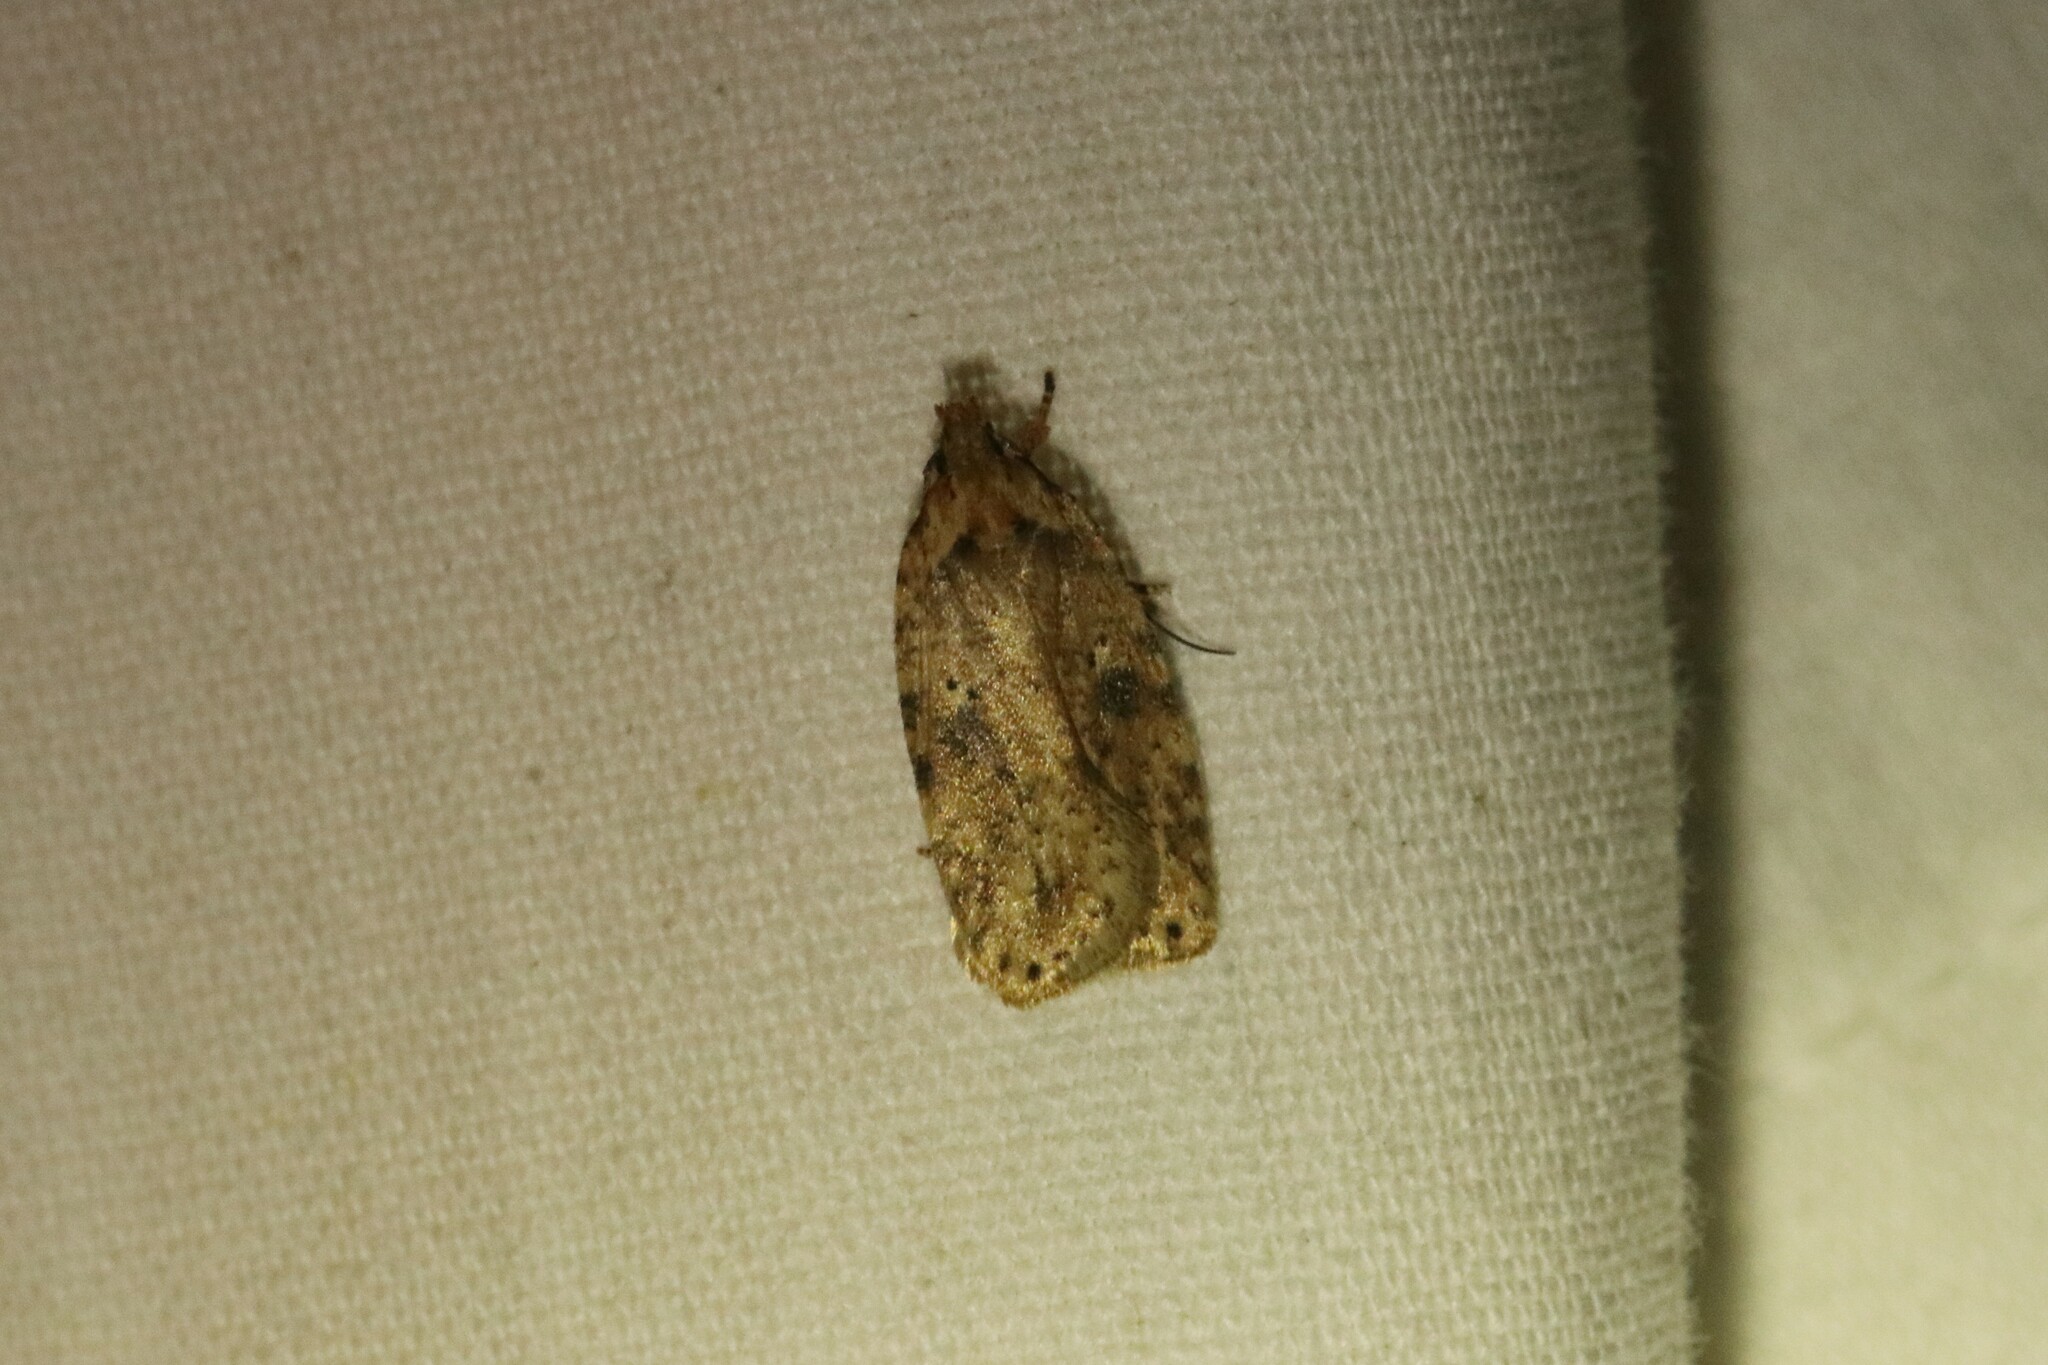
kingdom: Animalia
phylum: Arthropoda
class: Insecta
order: Lepidoptera
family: Depressariidae
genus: Agonopterix
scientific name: Agonopterix pulvipennella
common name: Goldenrod leafffolder
